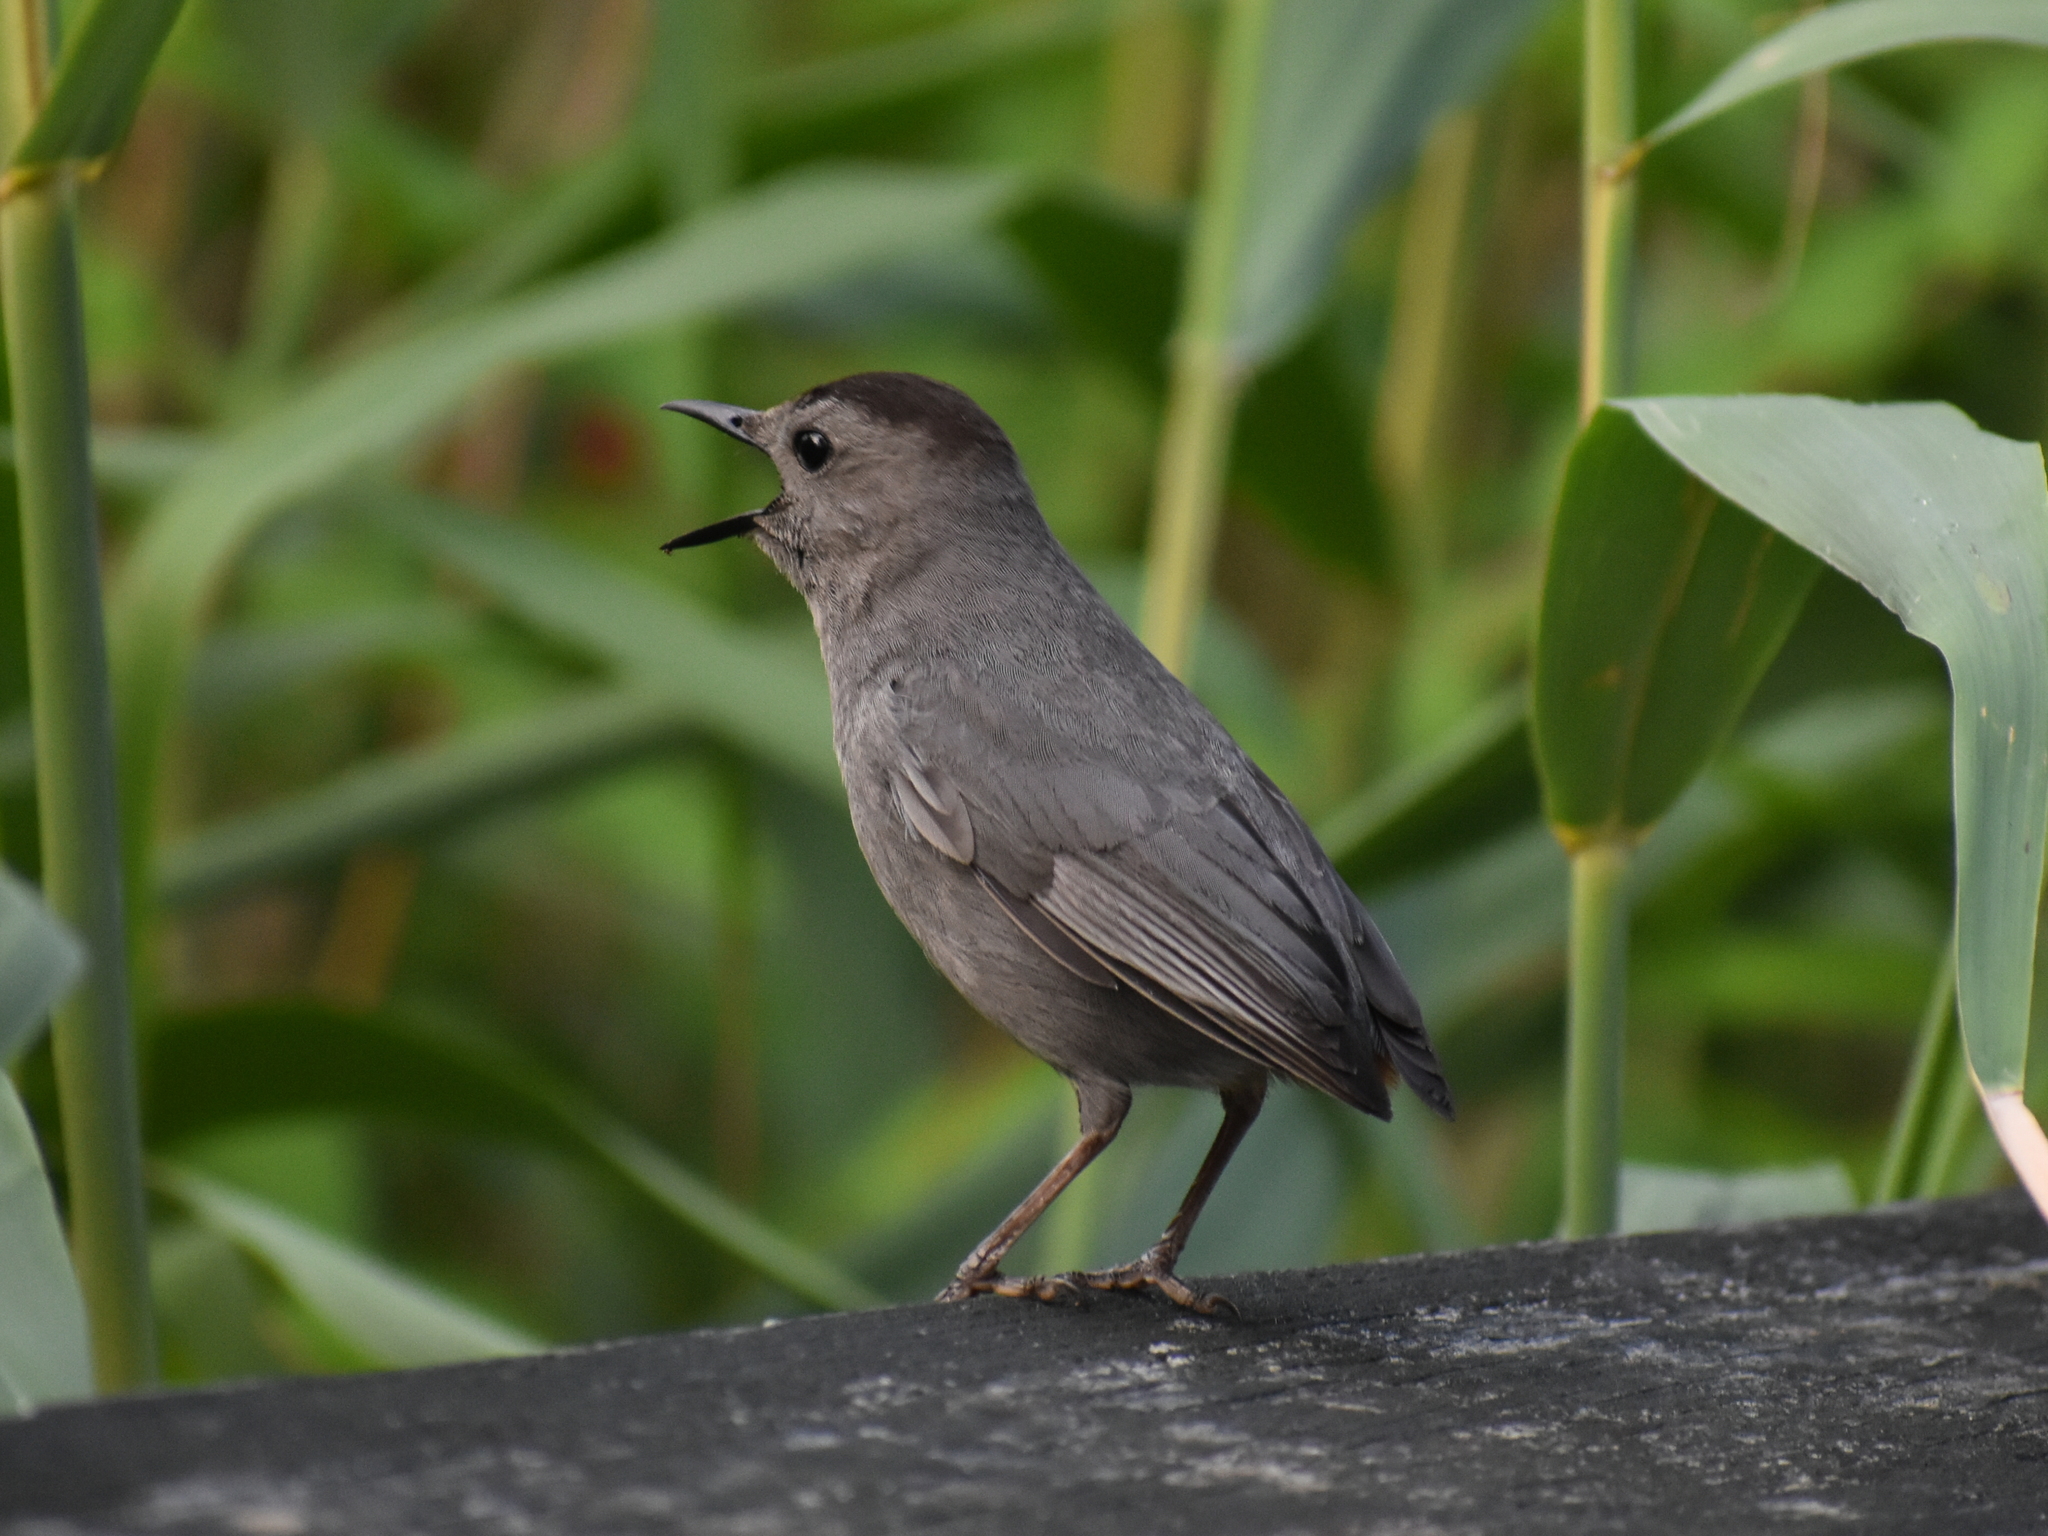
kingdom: Animalia
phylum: Chordata
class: Aves
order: Passeriformes
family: Mimidae
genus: Dumetella
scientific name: Dumetella carolinensis
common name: Gray catbird
